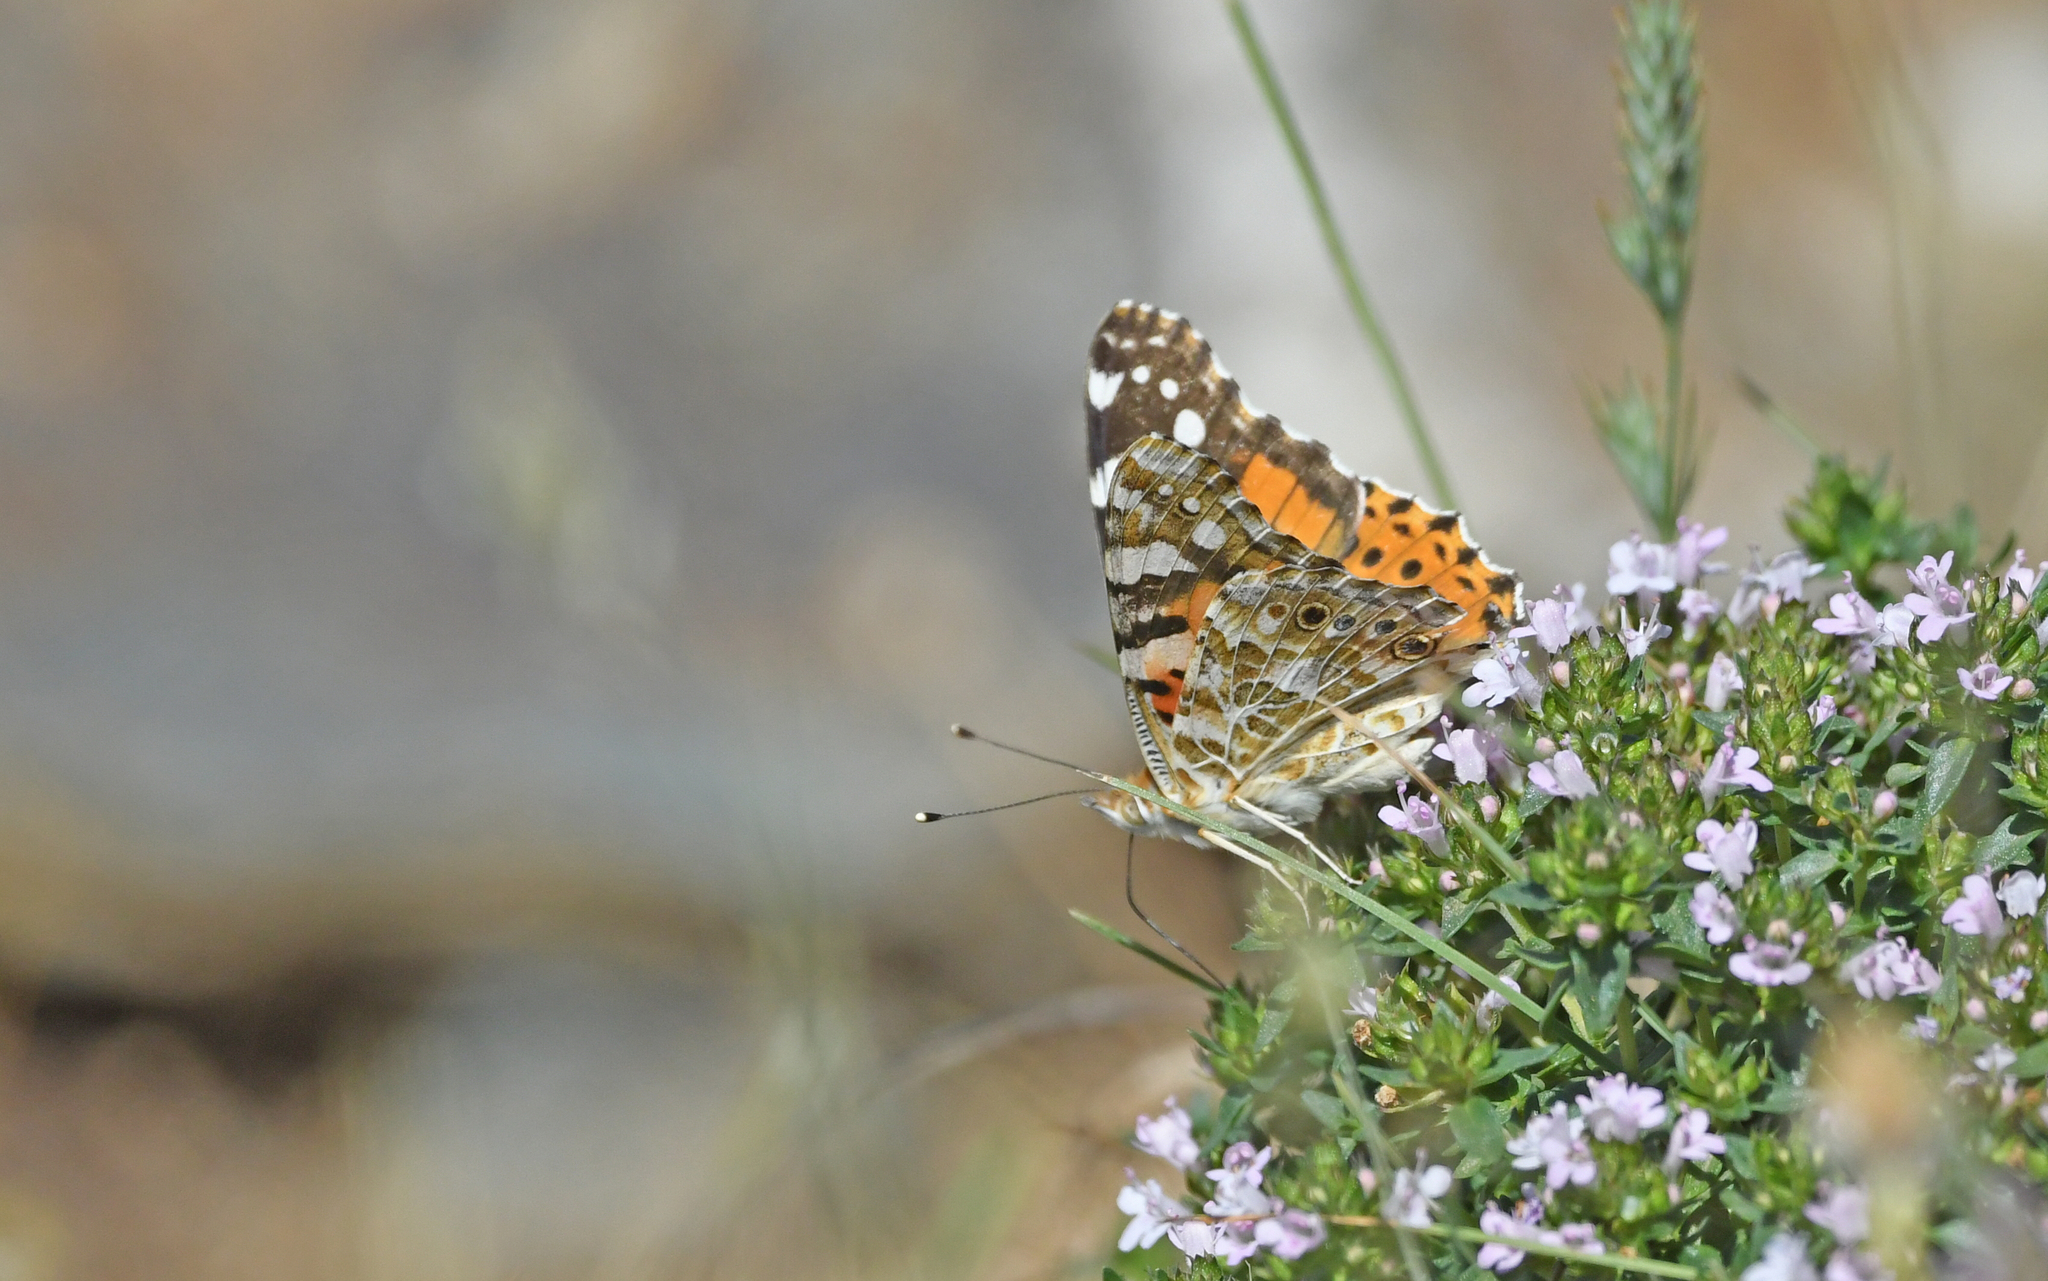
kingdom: Animalia
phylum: Arthropoda
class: Insecta
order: Lepidoptera
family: Nymphalidae
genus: Vanessa
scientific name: Vanessa cardui
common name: Painted lady
